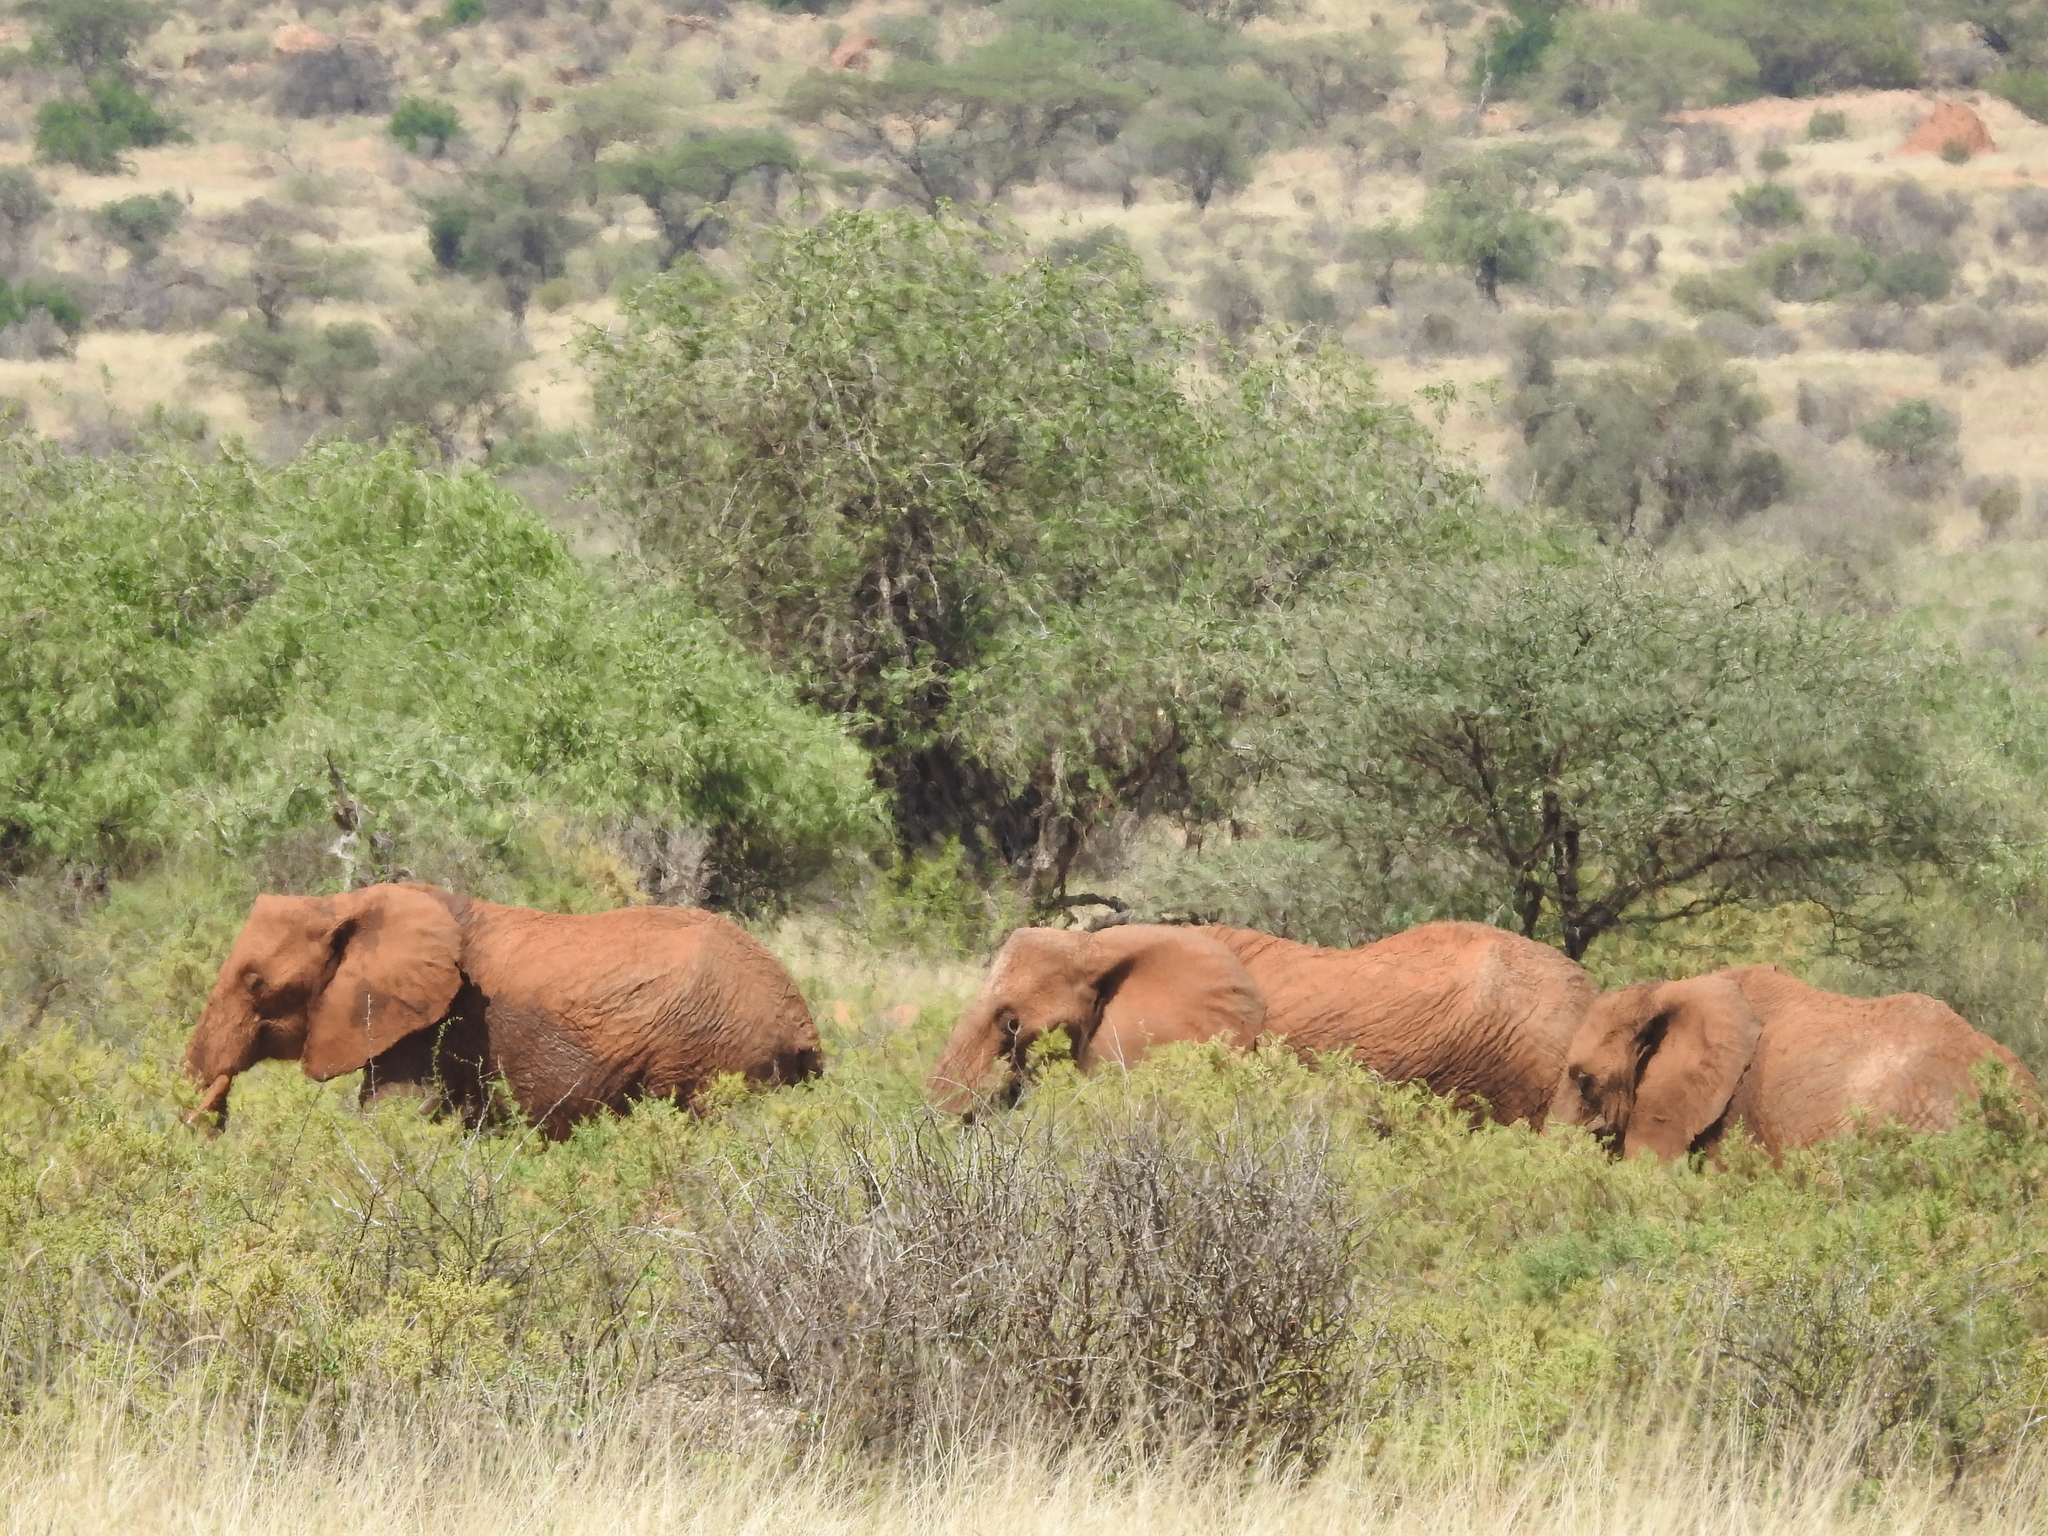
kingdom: Animalia
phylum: Chordata
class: Mammalia
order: Proboscidea
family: Elephantidae
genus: Loxodonta
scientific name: Loxodonta africana
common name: African elephant
